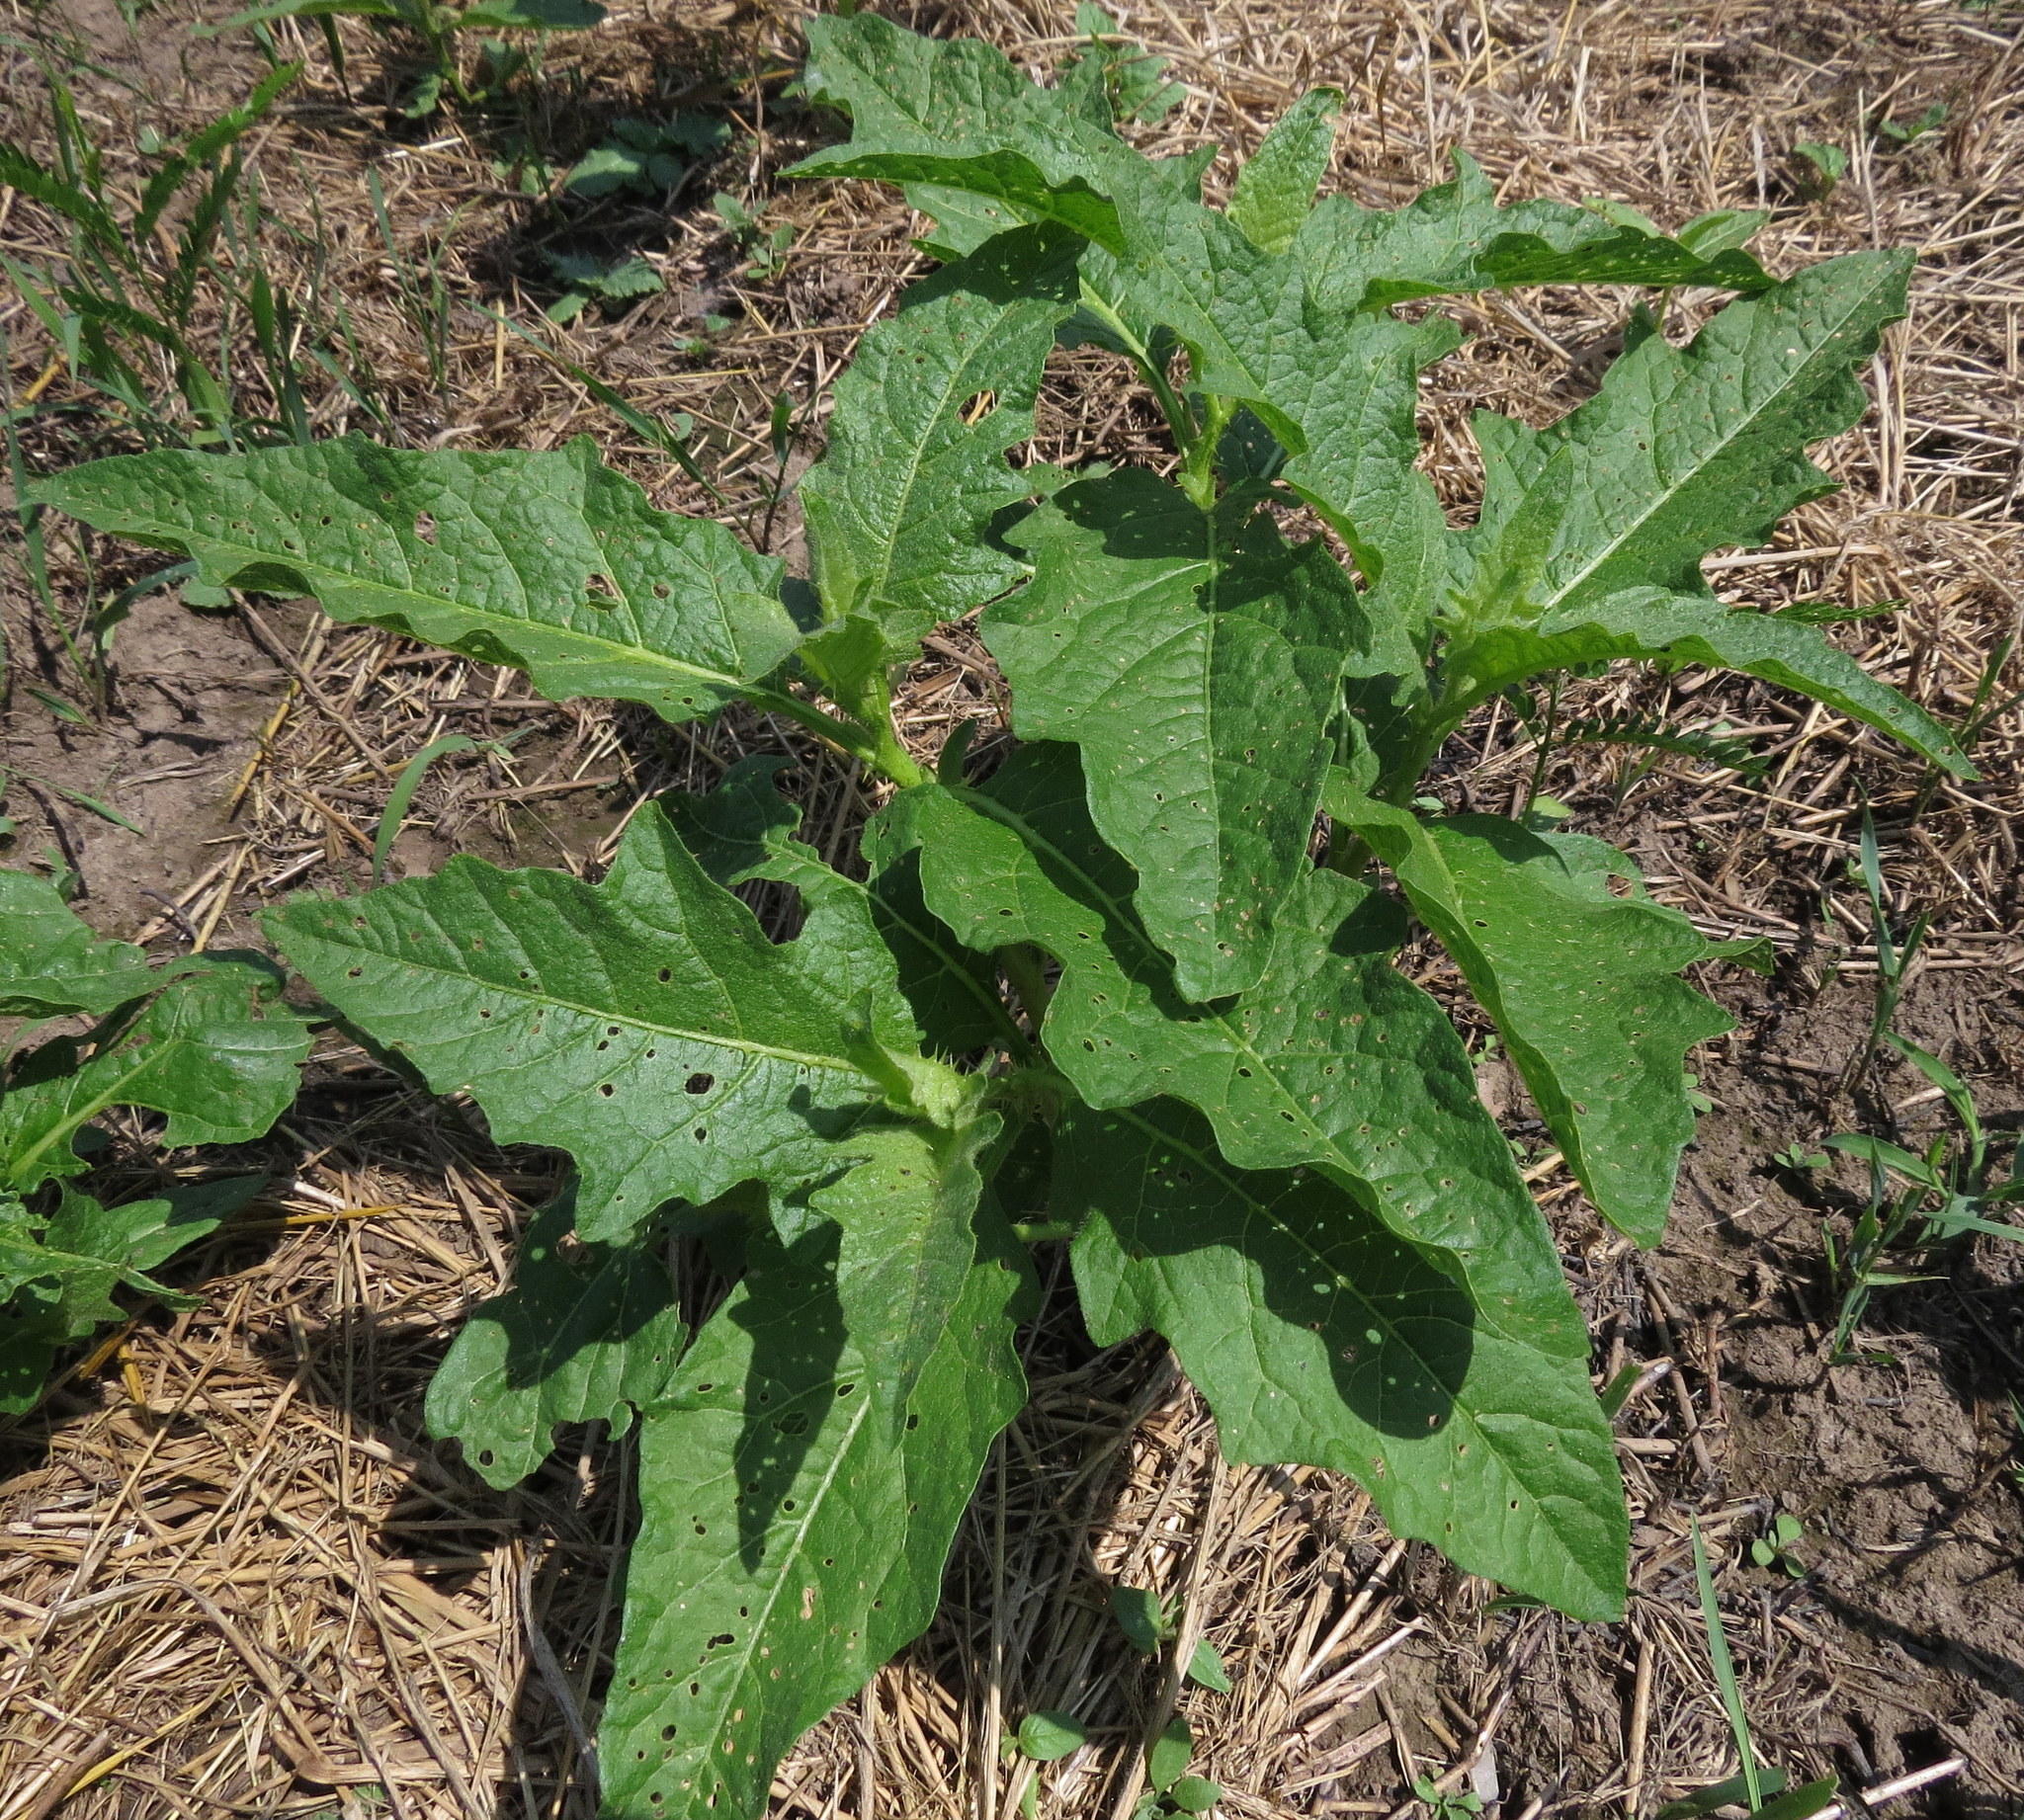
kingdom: Plantae
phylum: Tracheophyta
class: Magnoliopsida
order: Solanales
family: Solanaceae
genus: Solanum
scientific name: Solanum carolinense
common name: Horse-nettle
